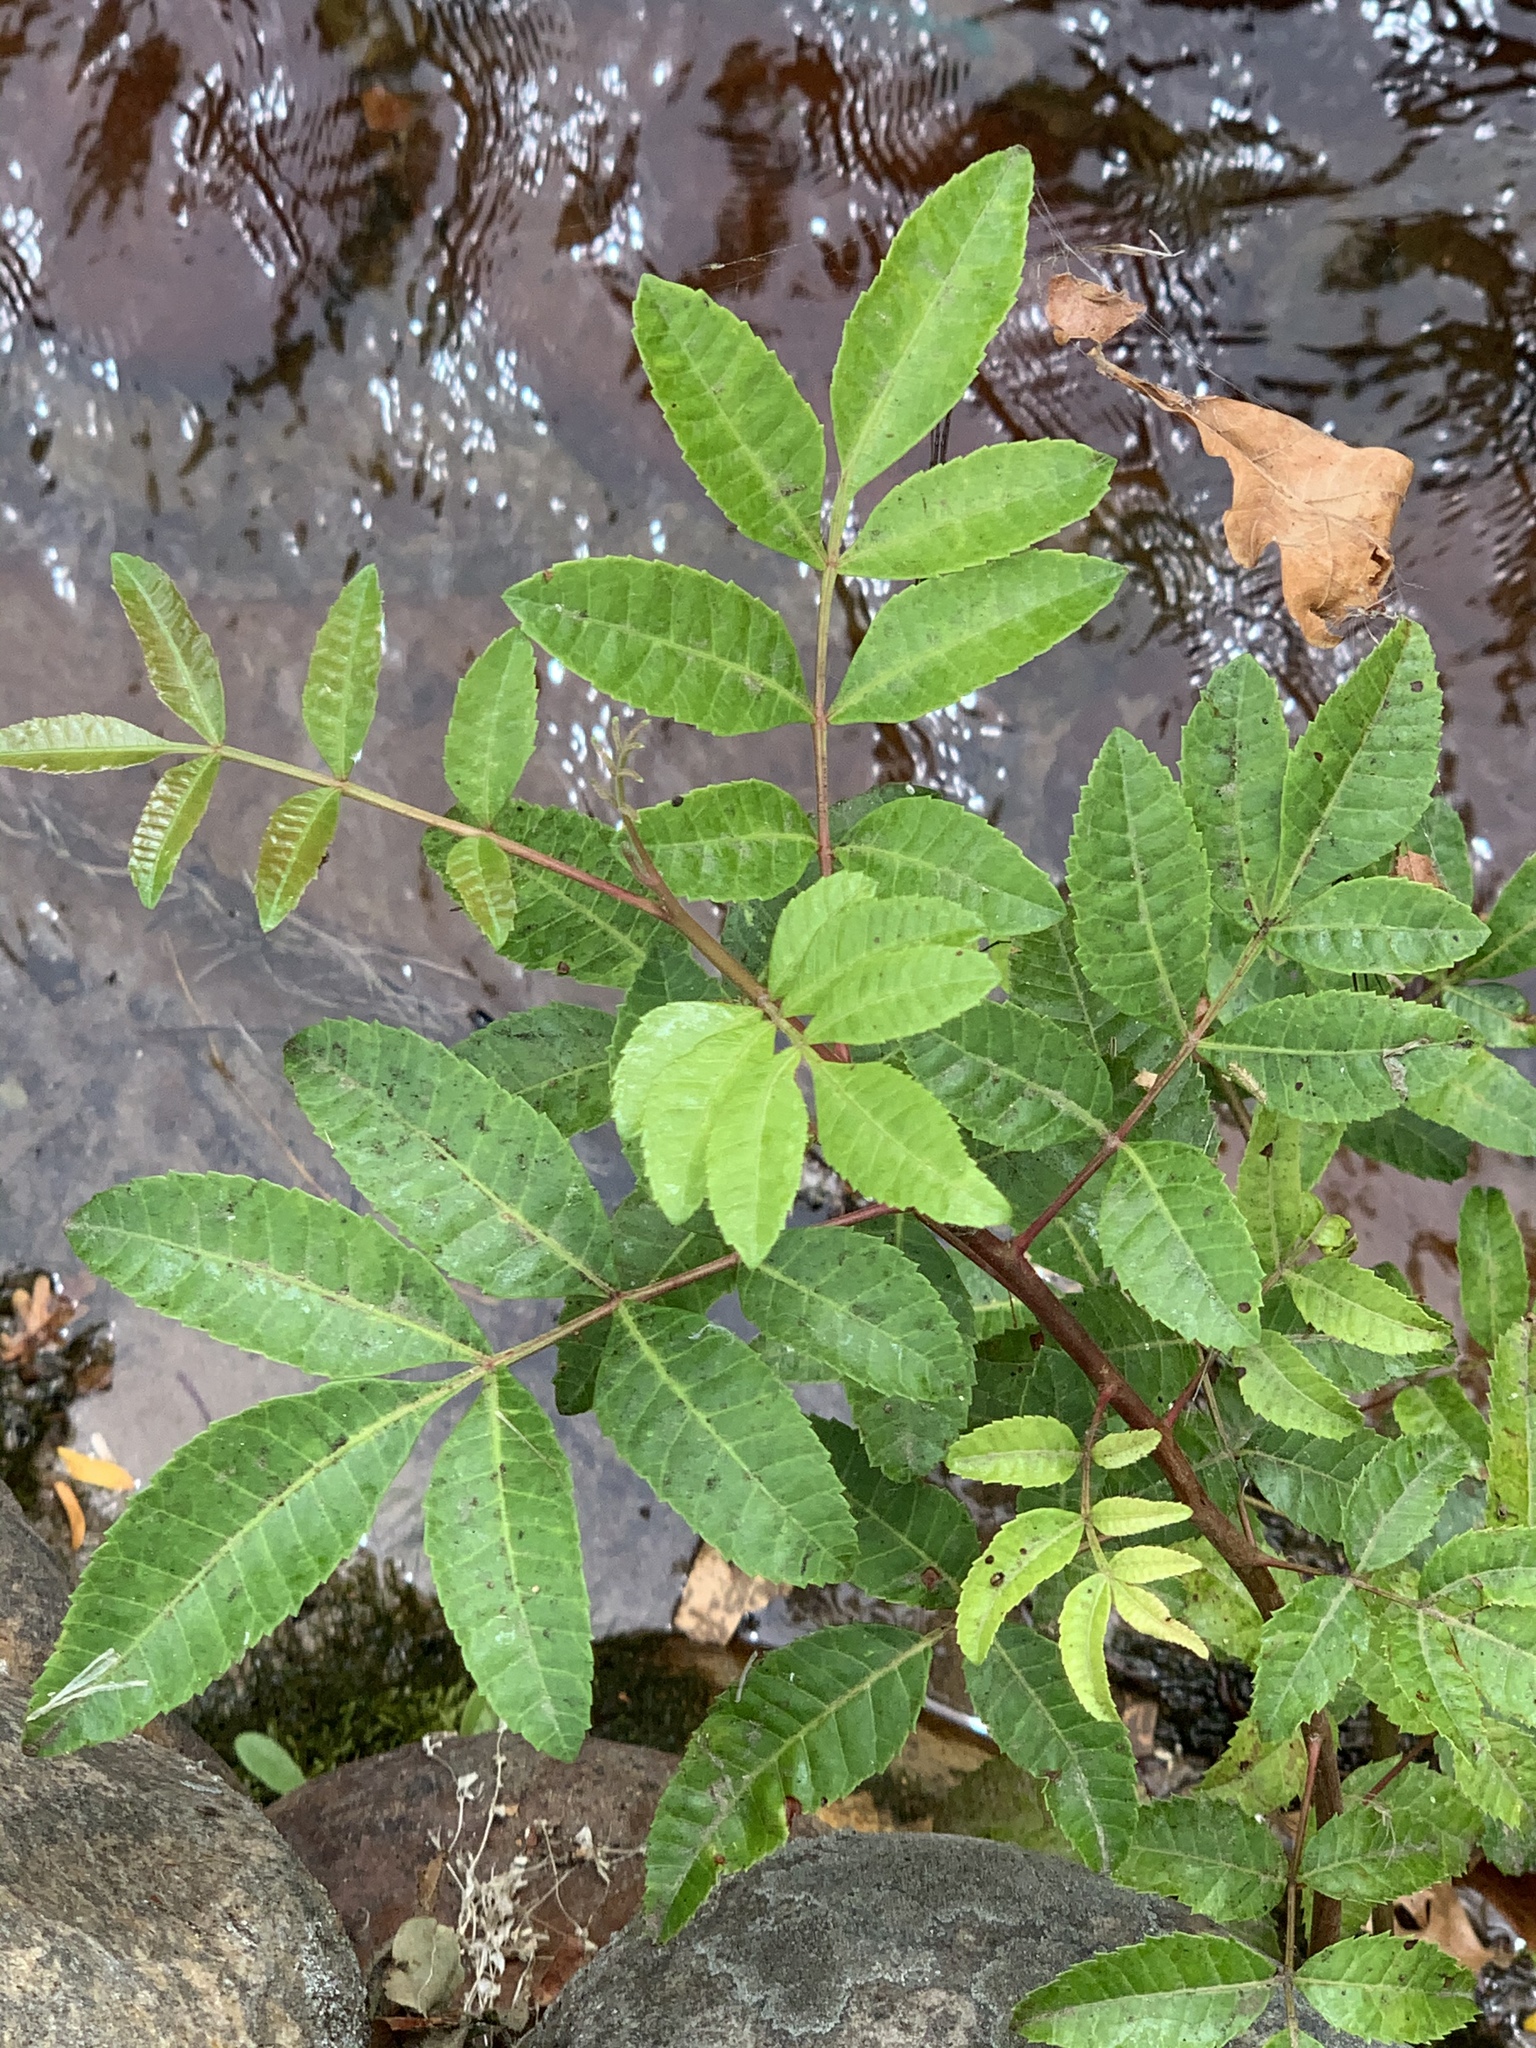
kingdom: Plantae
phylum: Tracheophyta
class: Magnoliopsida
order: Sapindales
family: Anacardiaceae
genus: Schinus
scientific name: Schinus terebinthifolia
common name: Brazilian peppertree
